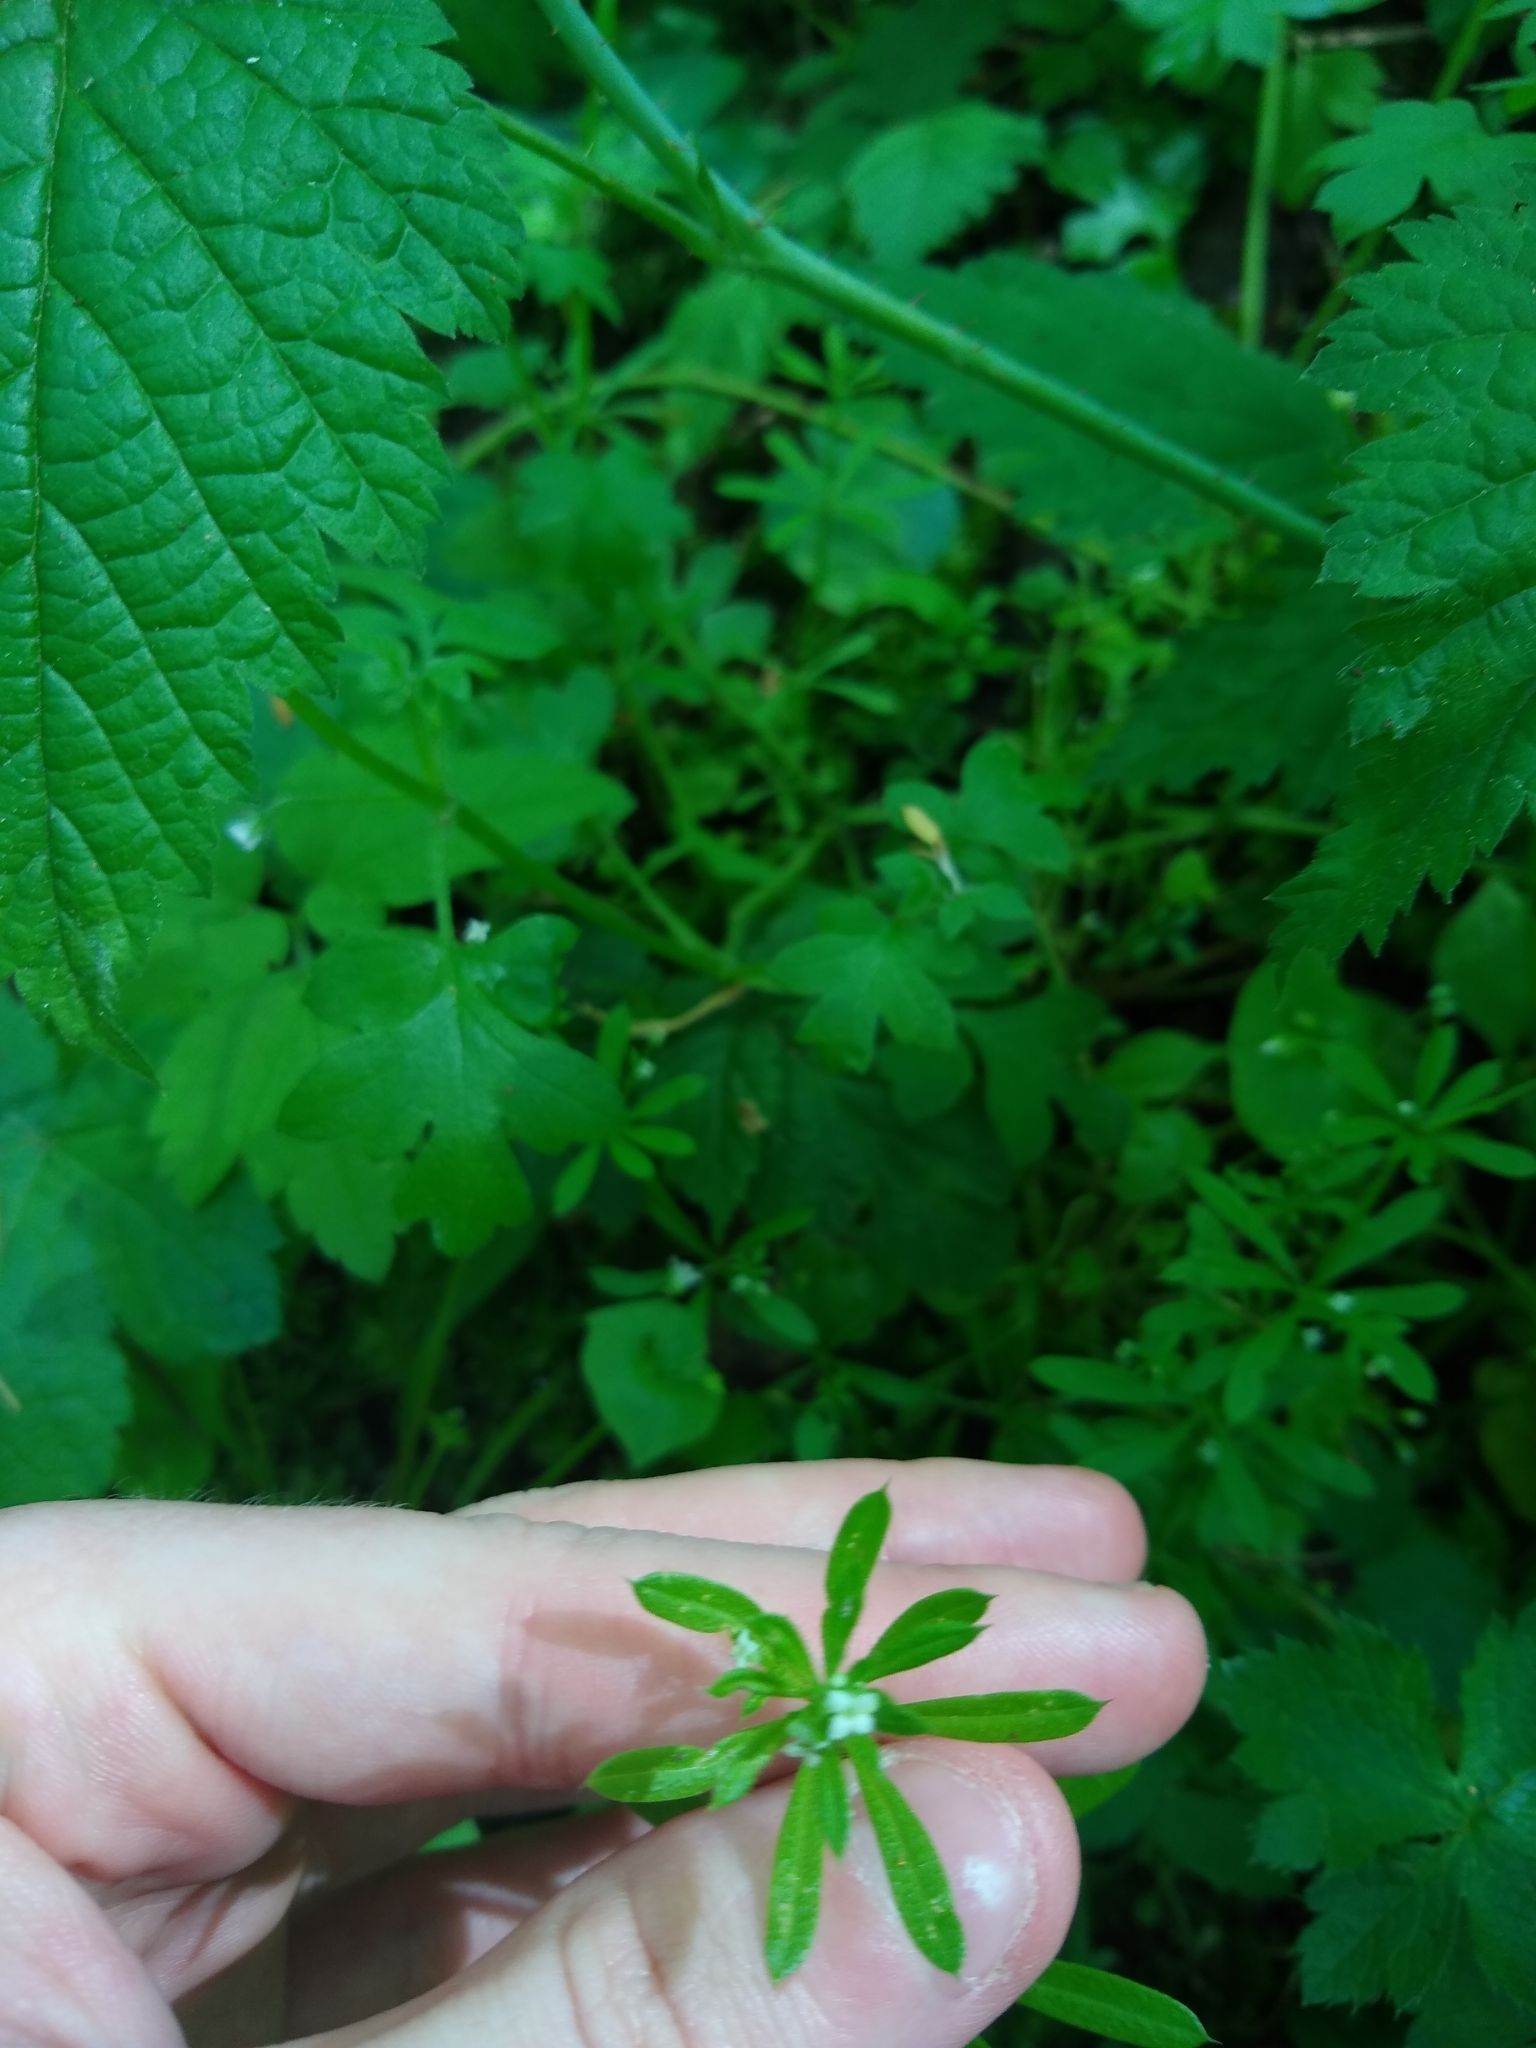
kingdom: Plantae
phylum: Tracheophyta
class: Magnoliopsida
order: Gentianales
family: Rubiaceae
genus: Galium
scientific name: Galium aparine
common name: Cleavers
